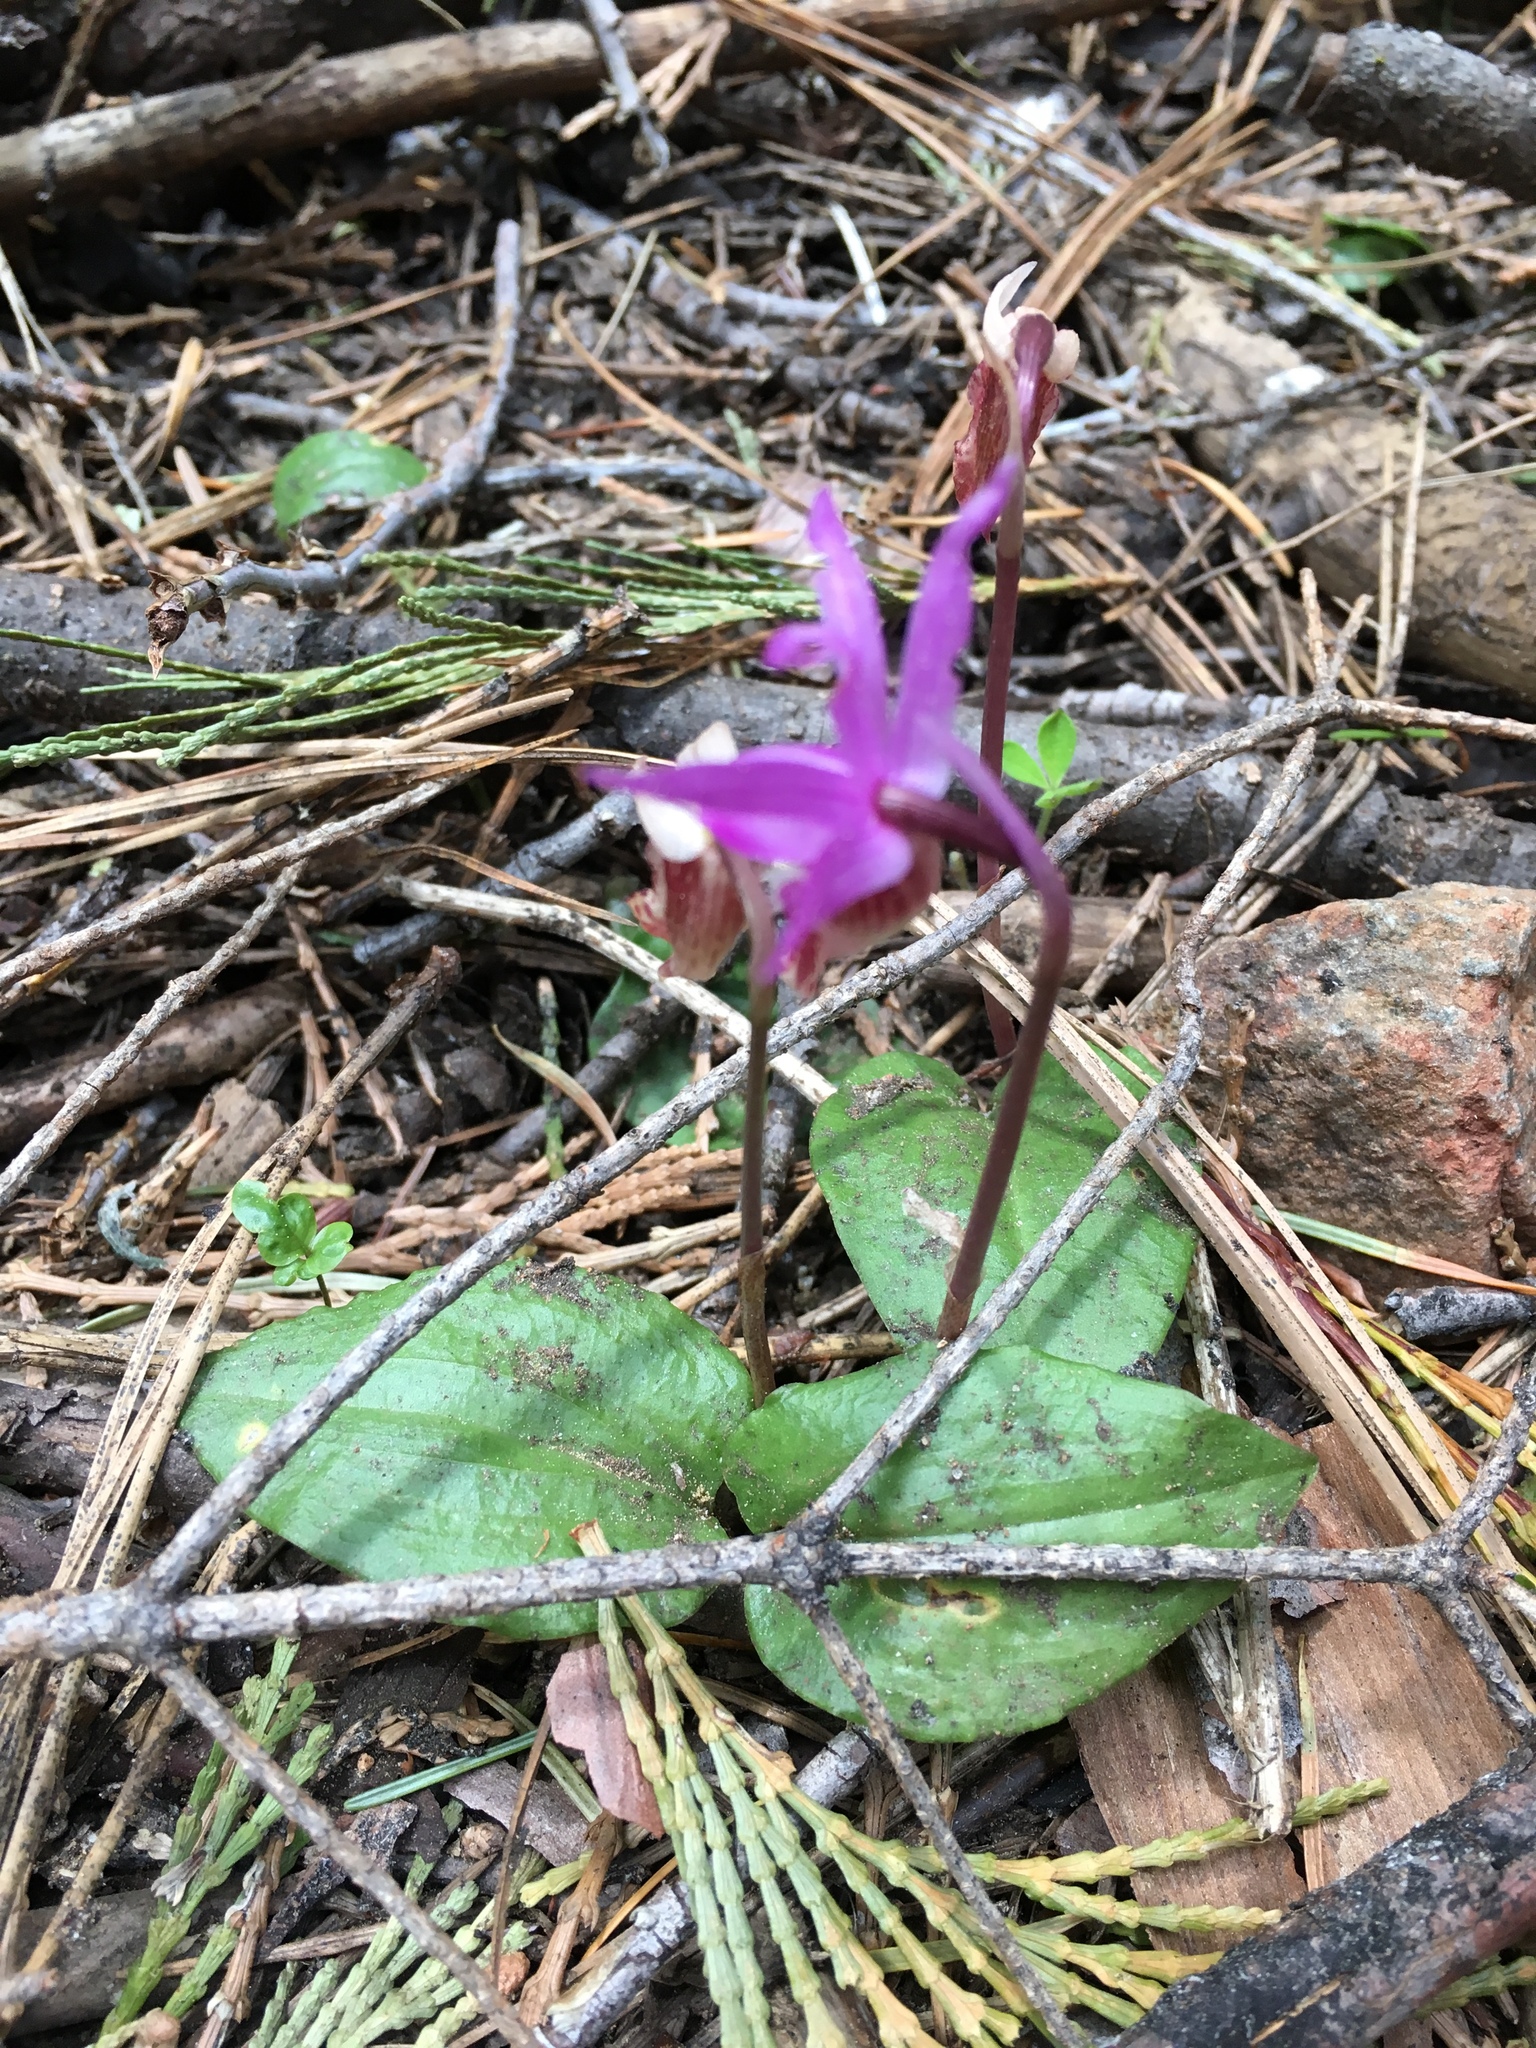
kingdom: Plantae
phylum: Tracheophyta
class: Liliopsida
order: Asparagales
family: Orchidaceae
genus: Calypso
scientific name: Calypso bulbosa
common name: Calypso
